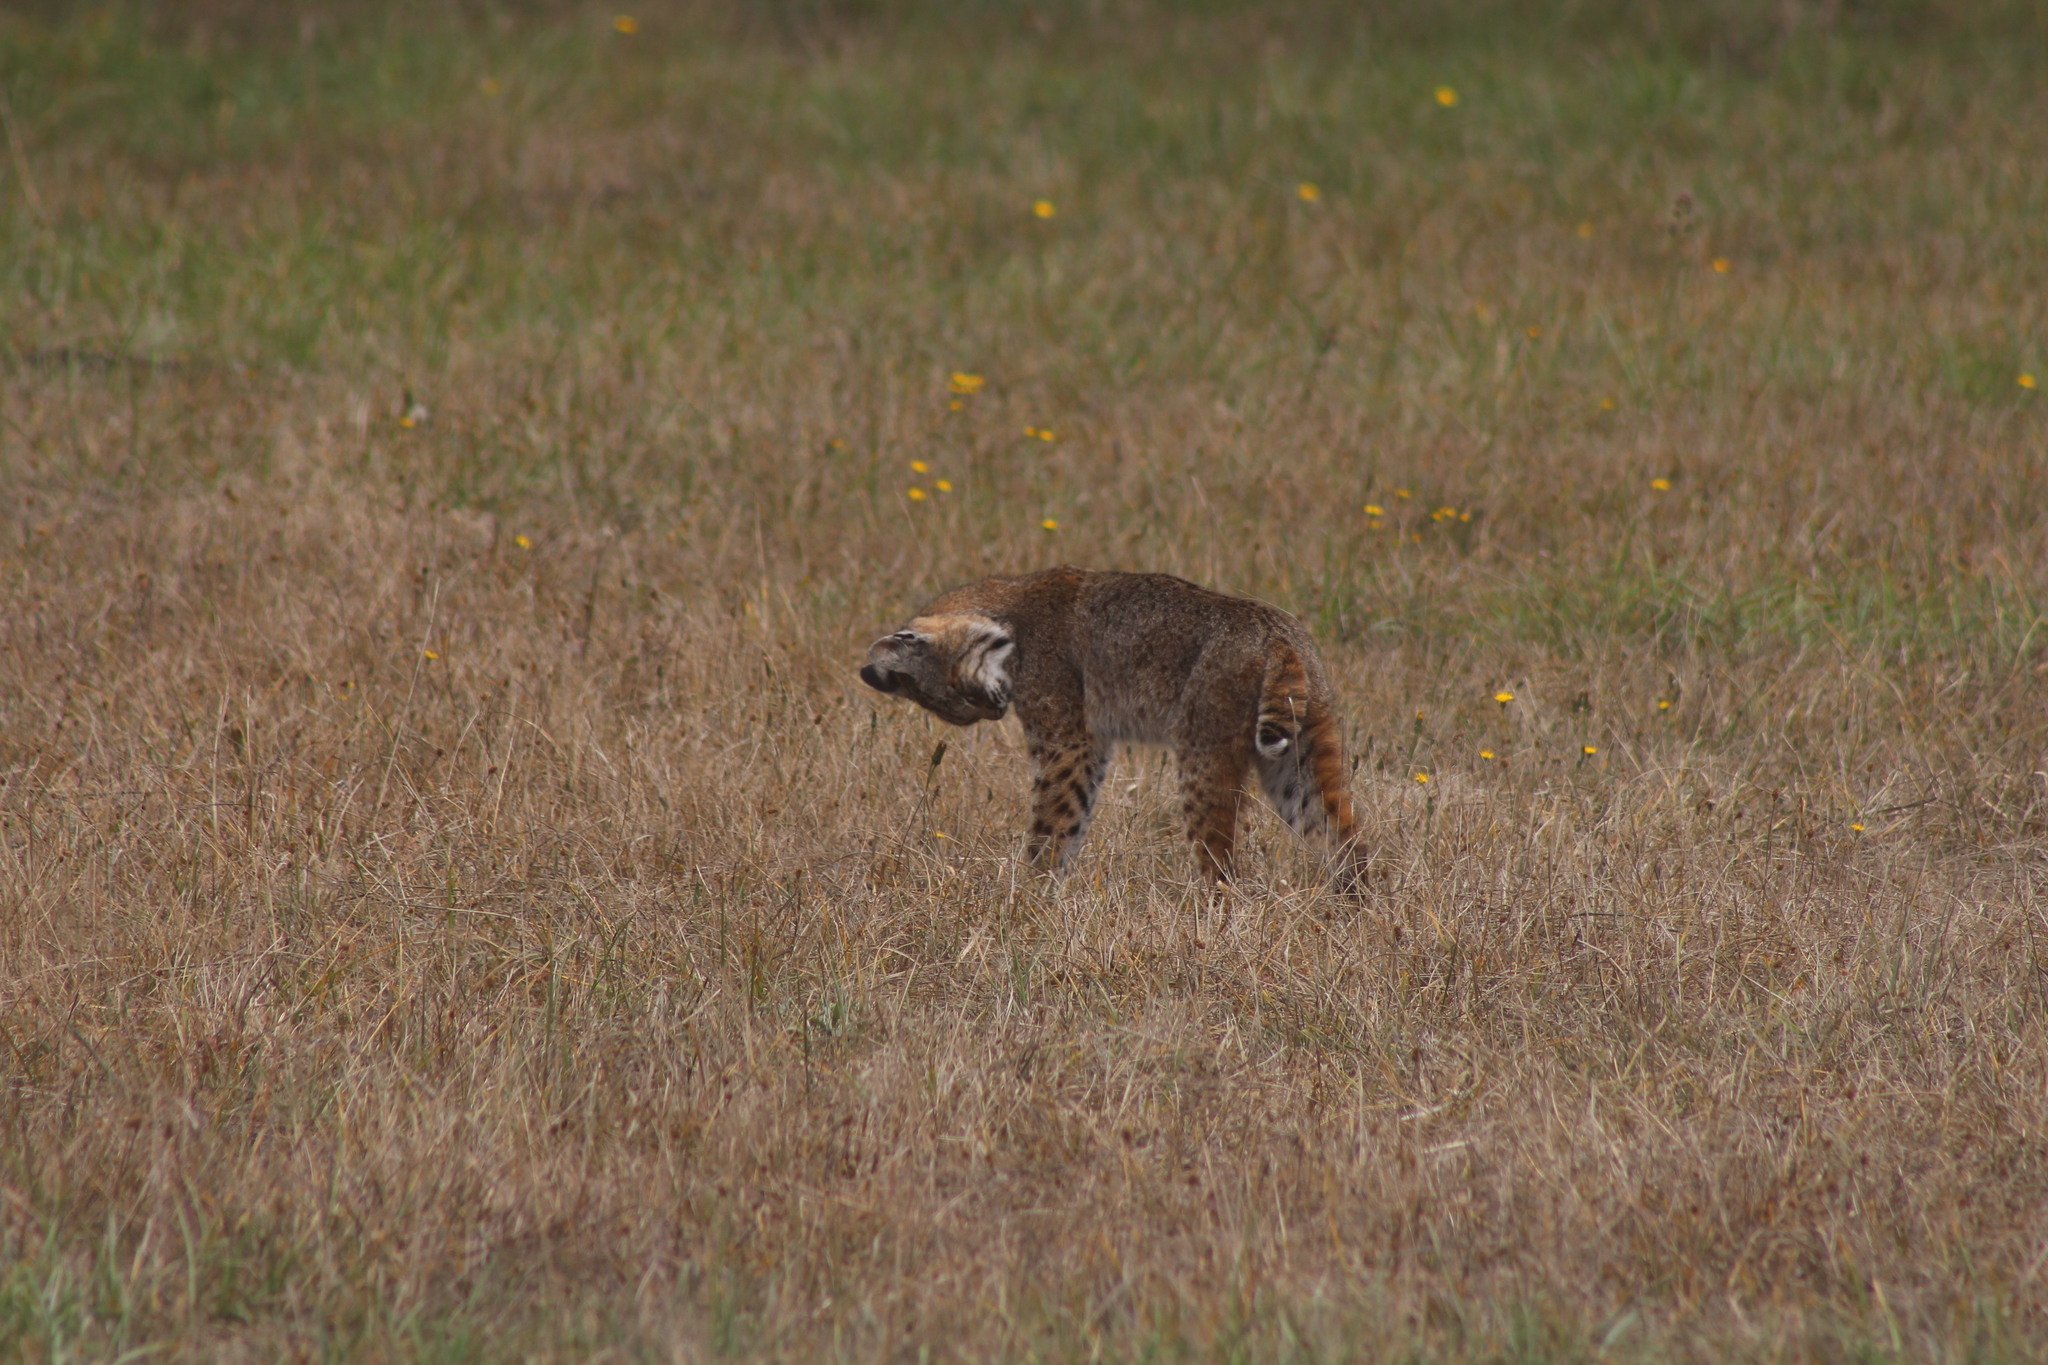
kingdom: Animalia
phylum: Chordata
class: Mammalia
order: Carnivora
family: Felidae
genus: Lynx
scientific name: Lynx rufus
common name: Bobcat
